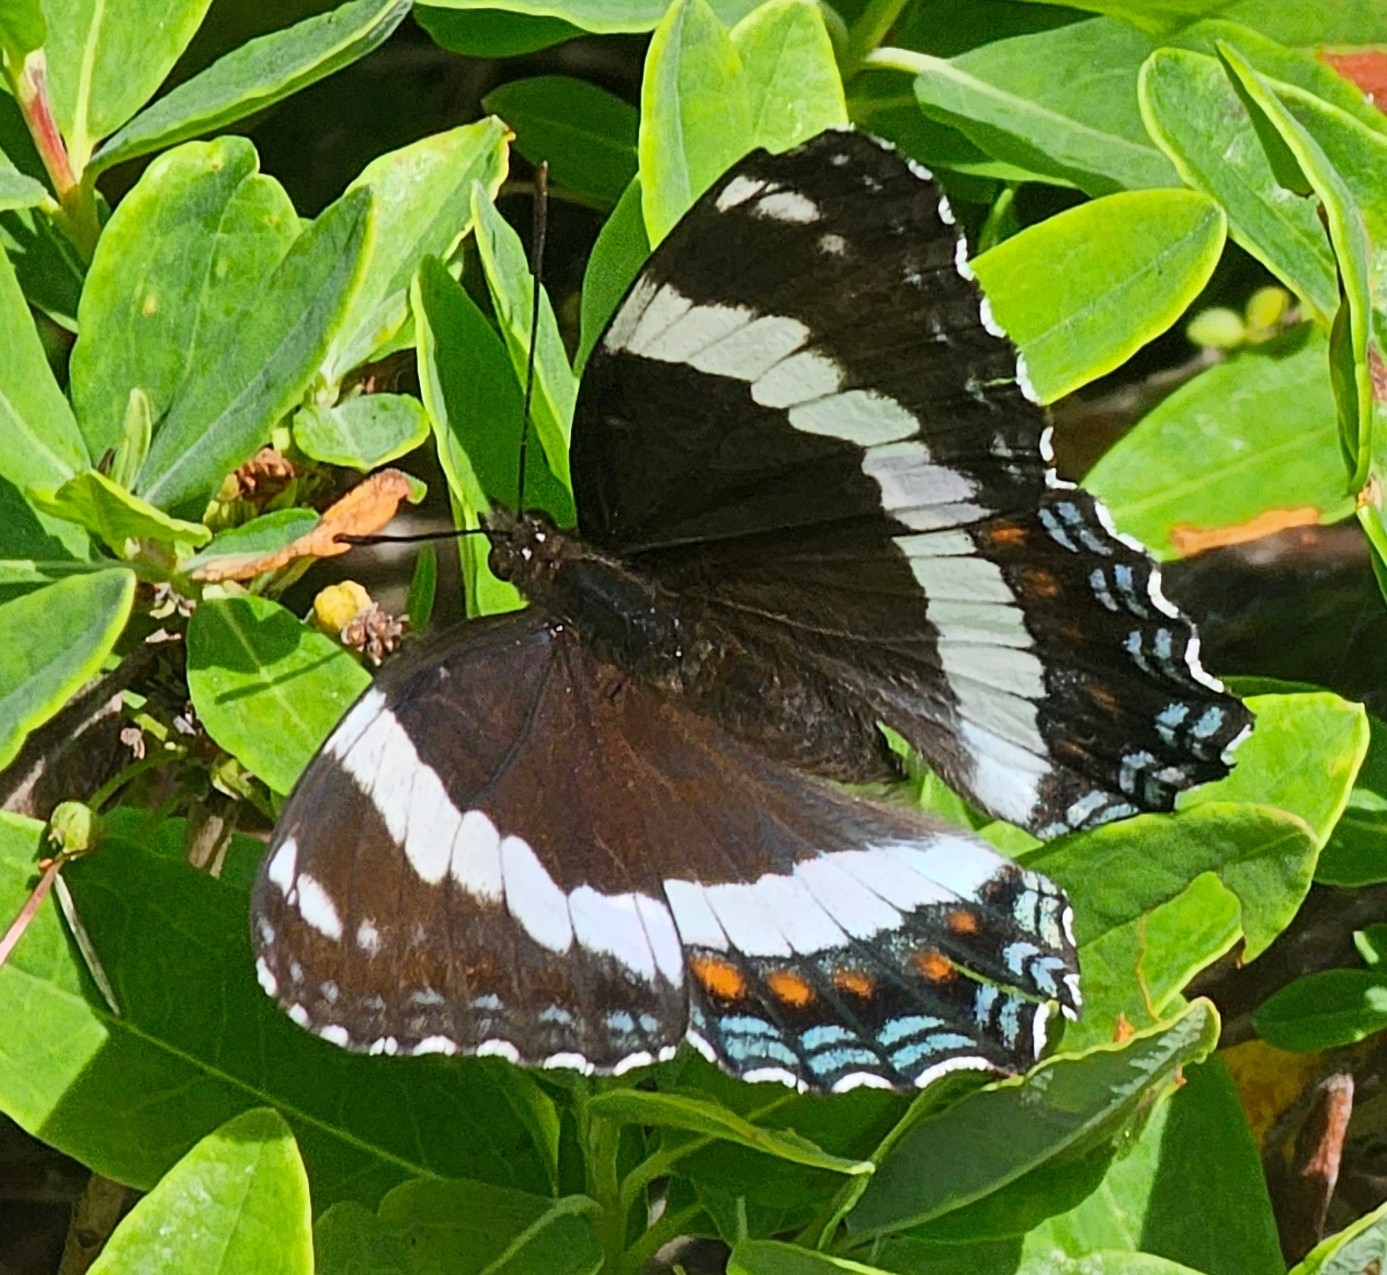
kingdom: Animalia
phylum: Arthropoda
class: Insecta
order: Lepidoptera
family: Nymphalidae
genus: Limenitis
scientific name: Limenitis arthemis
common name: Red-spotted admiral
